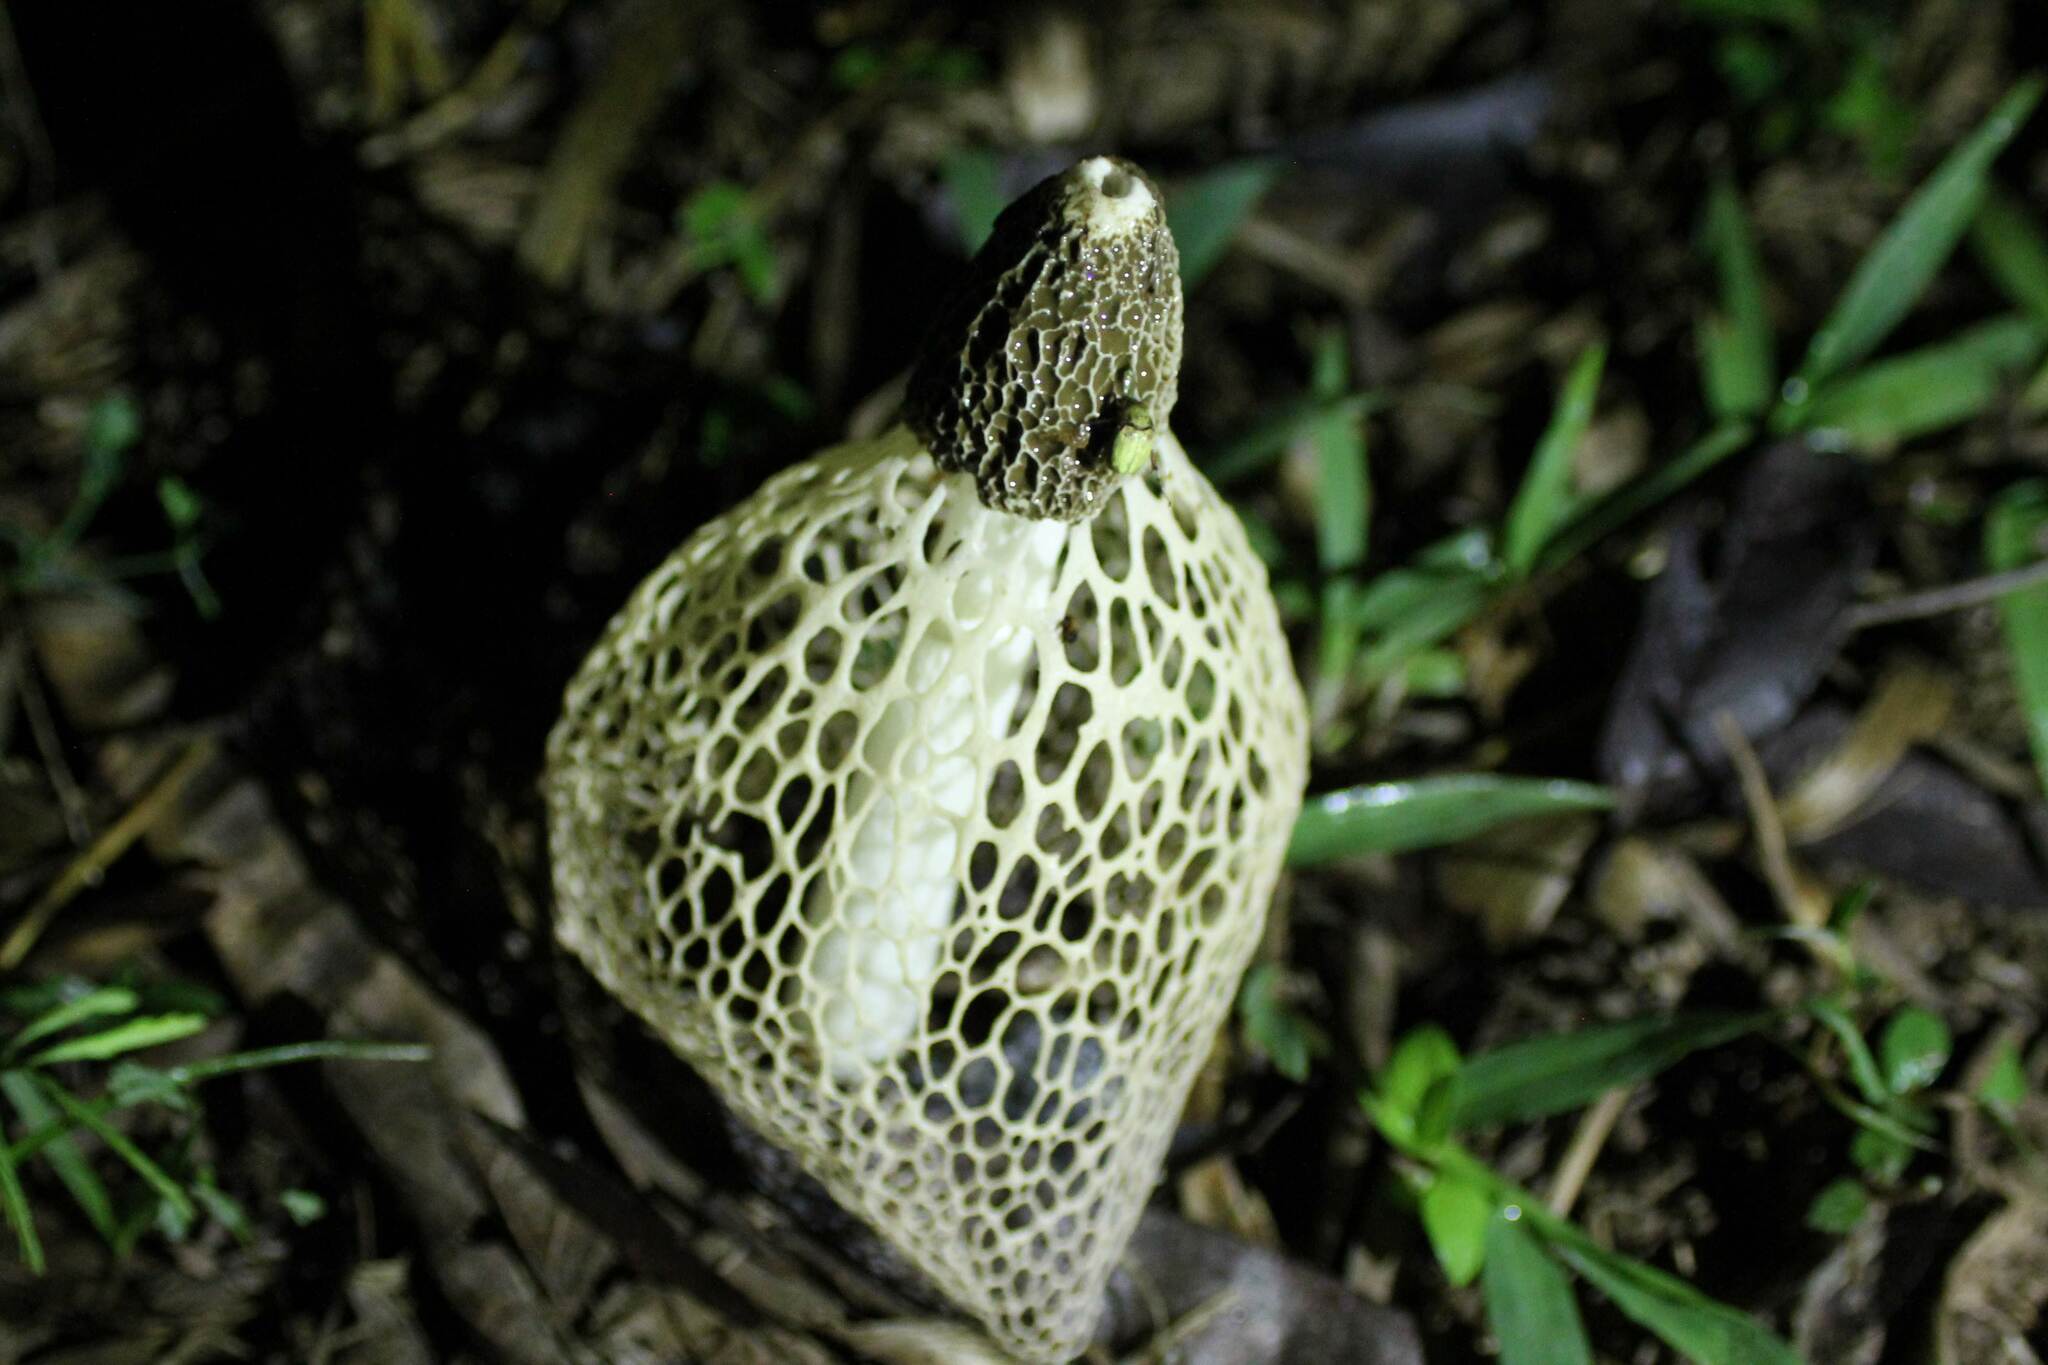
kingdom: Fungi
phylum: Basidiomycota
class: Agaricomycetes
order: Phallales
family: Phallaceae
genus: Phallus
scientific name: Phallus indusiatus
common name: Bridal veil stinkhorn
